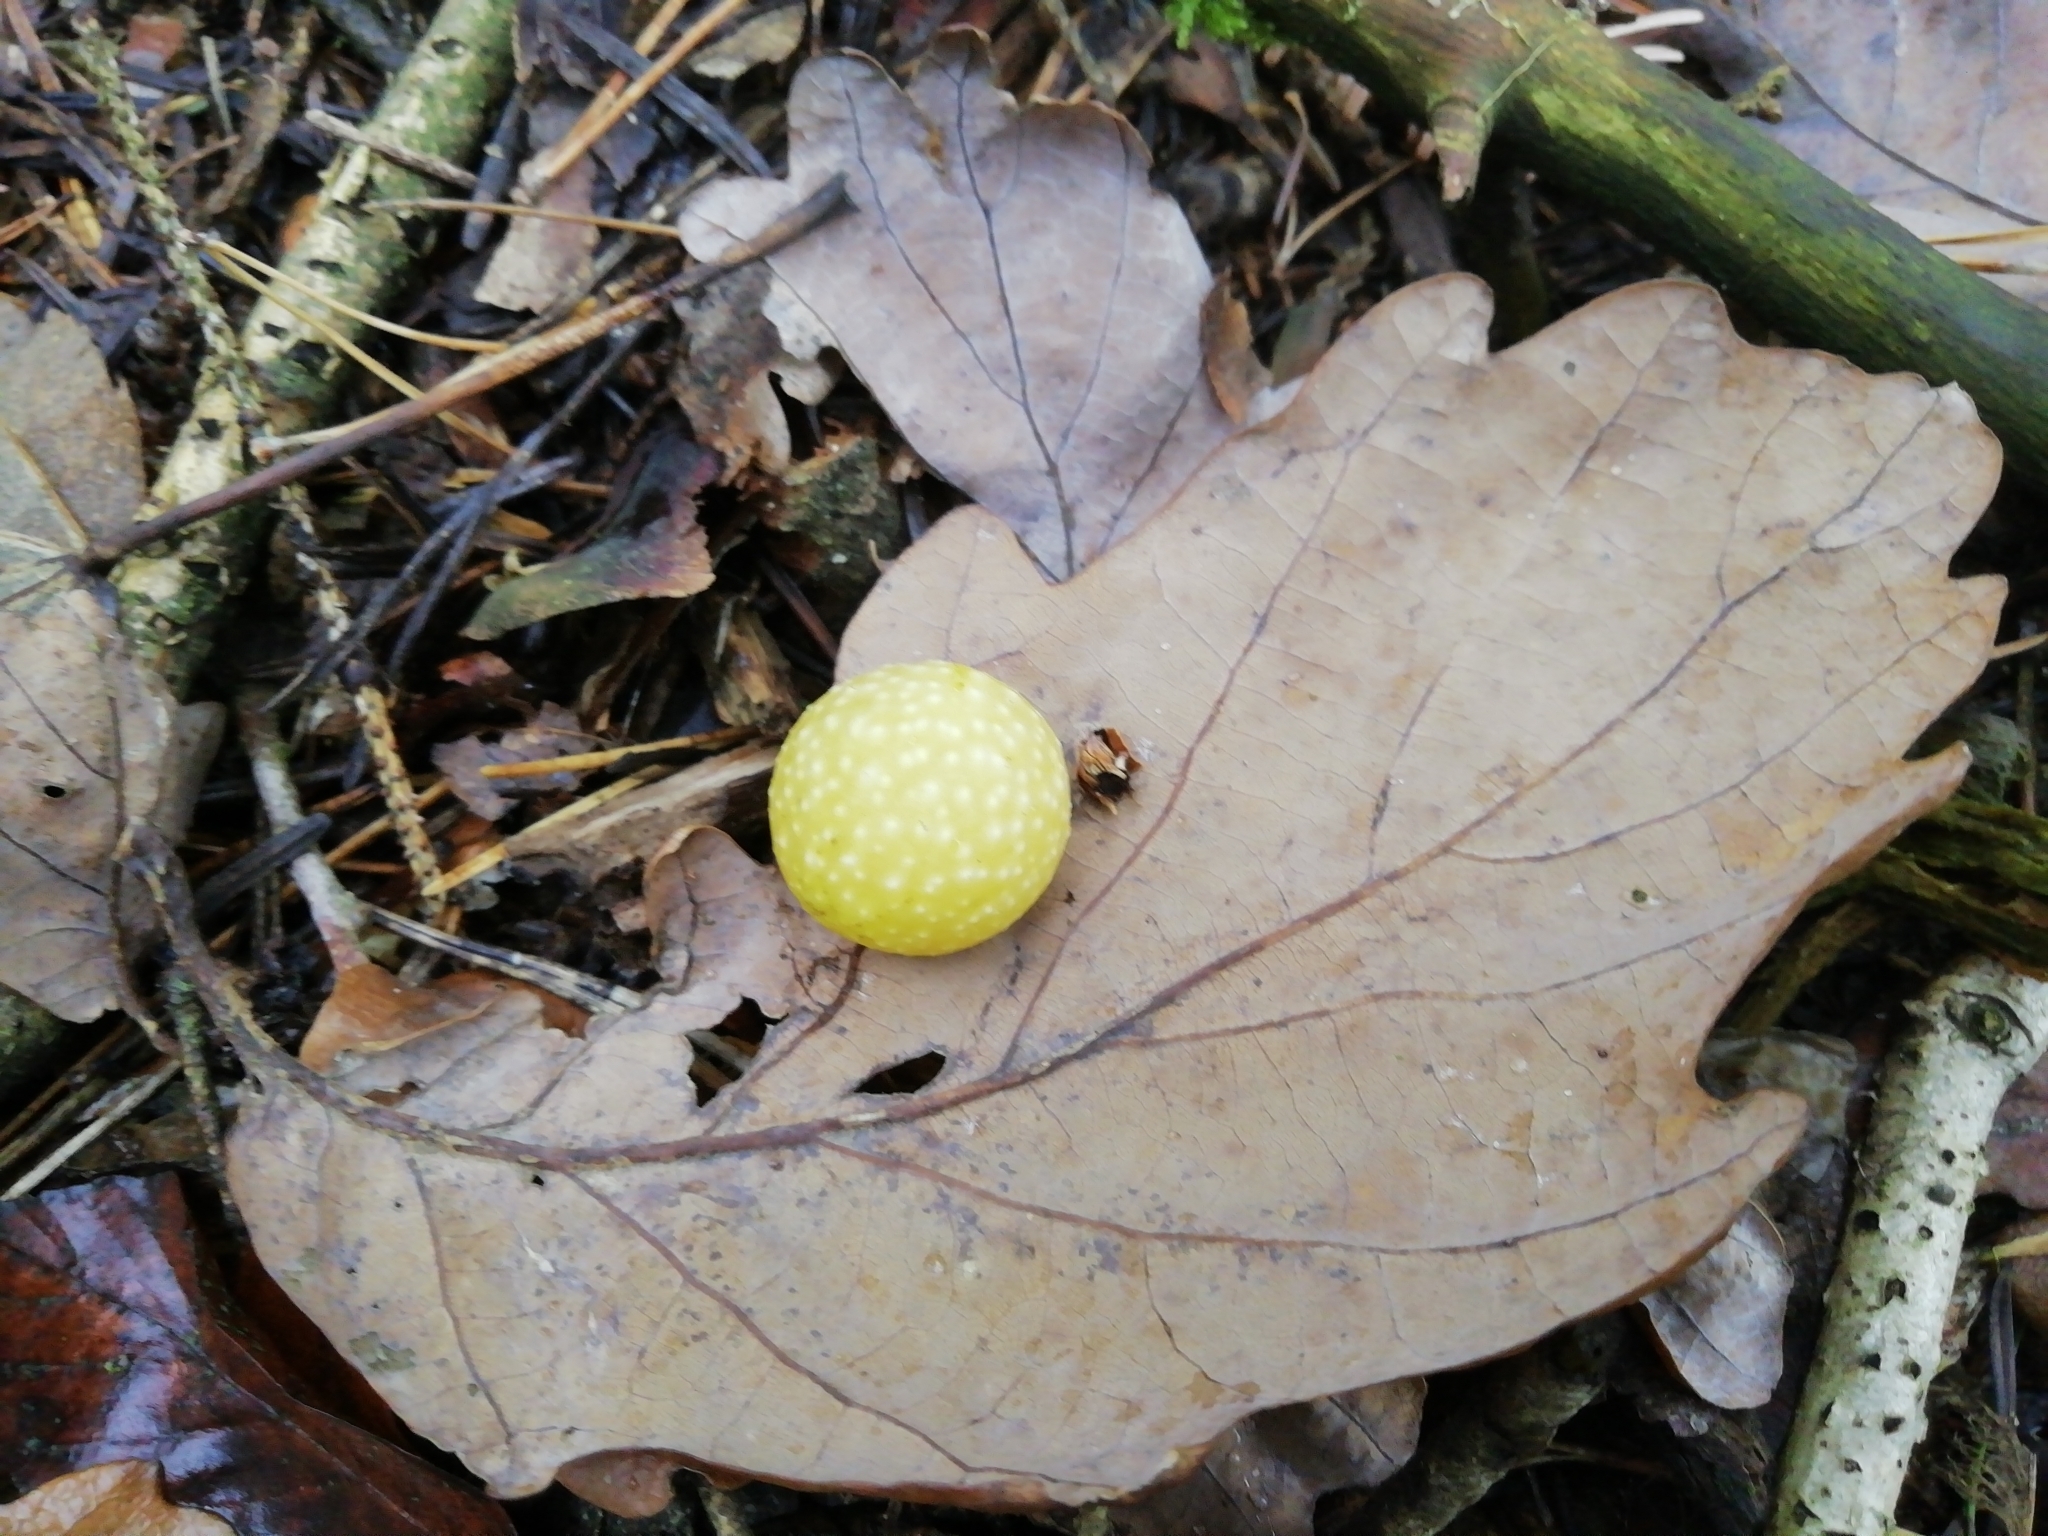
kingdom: Animalia
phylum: Arthropoda
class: Insecta
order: Hymenoptera
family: Cynipidae
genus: Cynips
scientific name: Cynips quercusfolii
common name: Cherry gall
